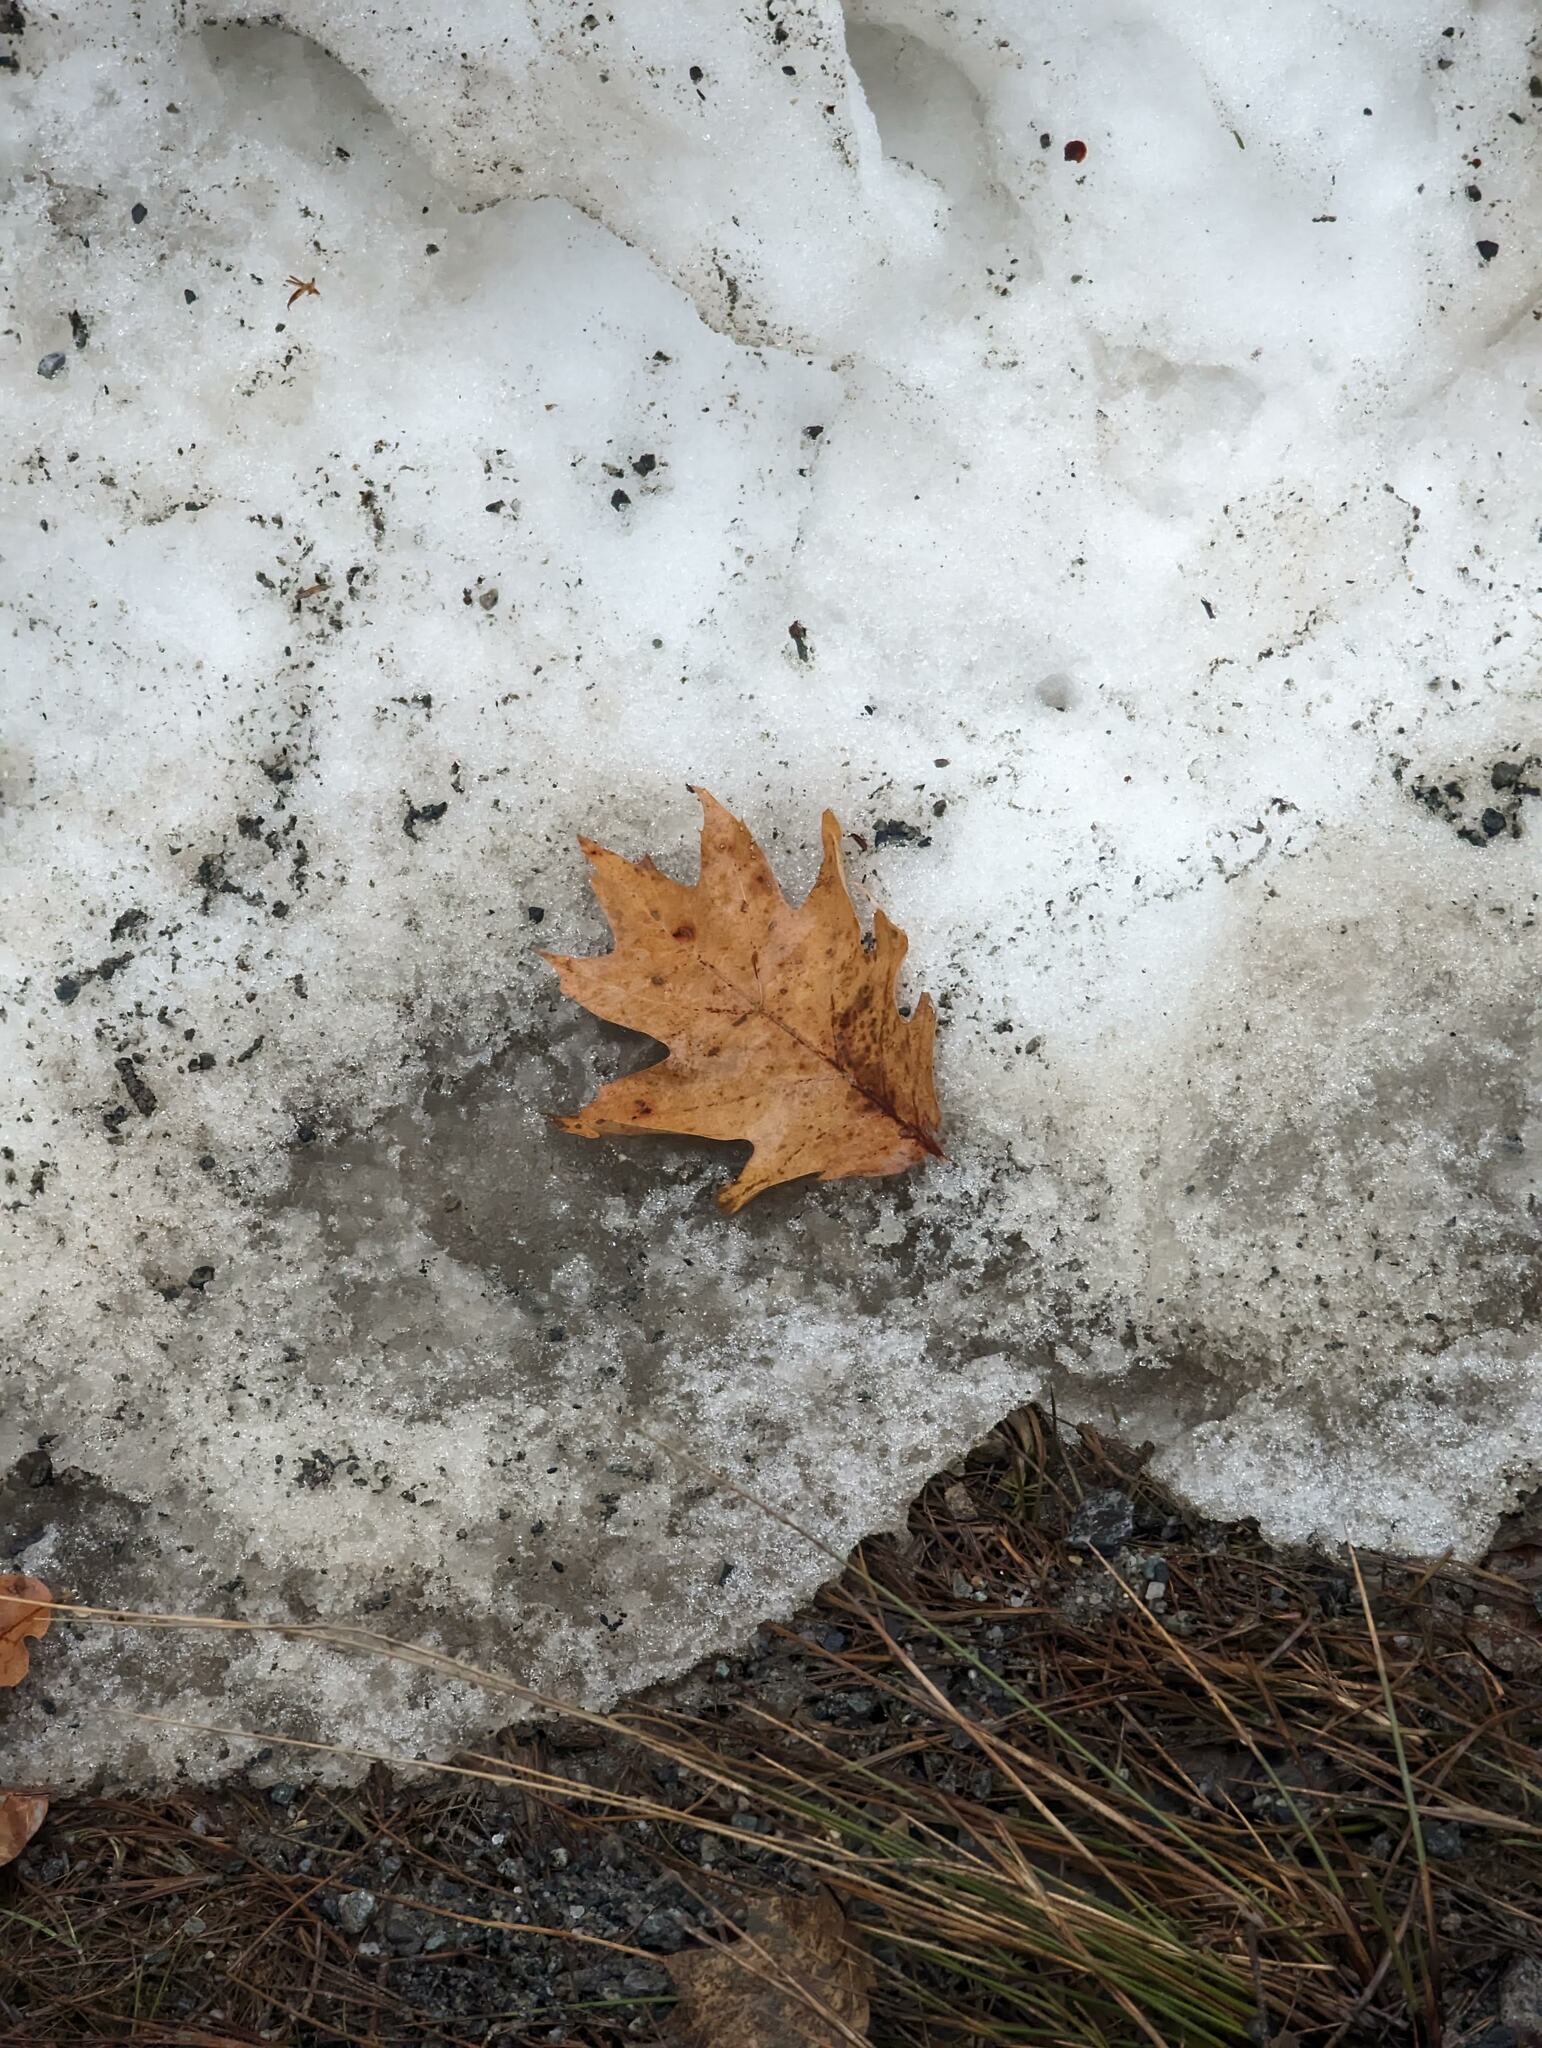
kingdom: Plantae
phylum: Tracheophyta
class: Magnoliopsida
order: Fagales
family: Fagaceae
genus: Quercus
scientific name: Quercus rubra
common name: Red oak
